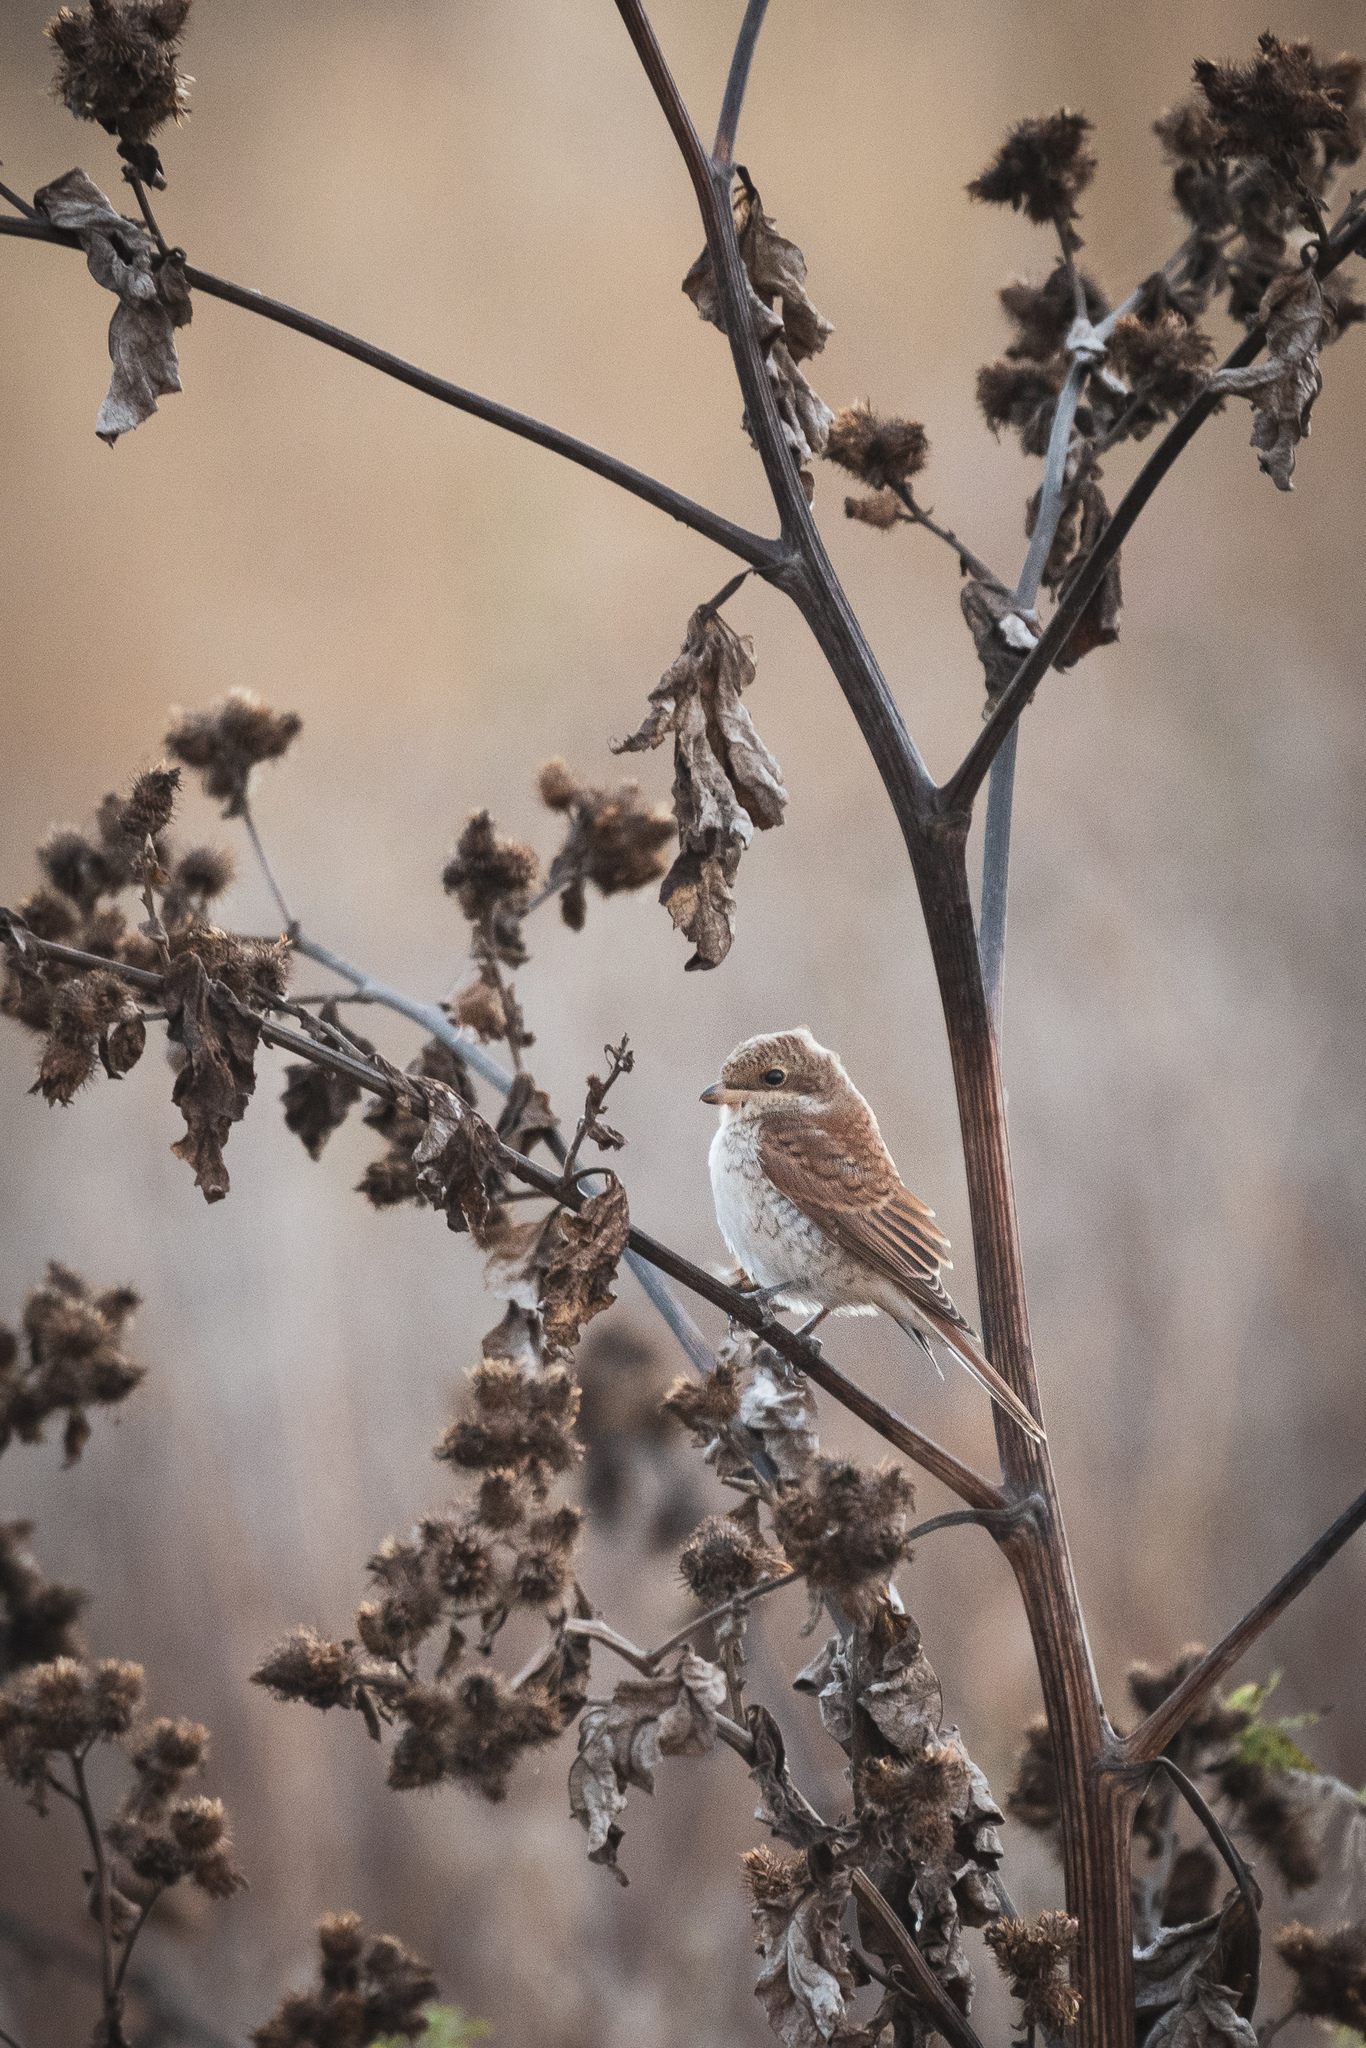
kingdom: Animalia
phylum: Chordata
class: Aves
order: Passeriformes
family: Laniidae
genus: Lanius
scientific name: Lanius collurio
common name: Red-backed shrike
